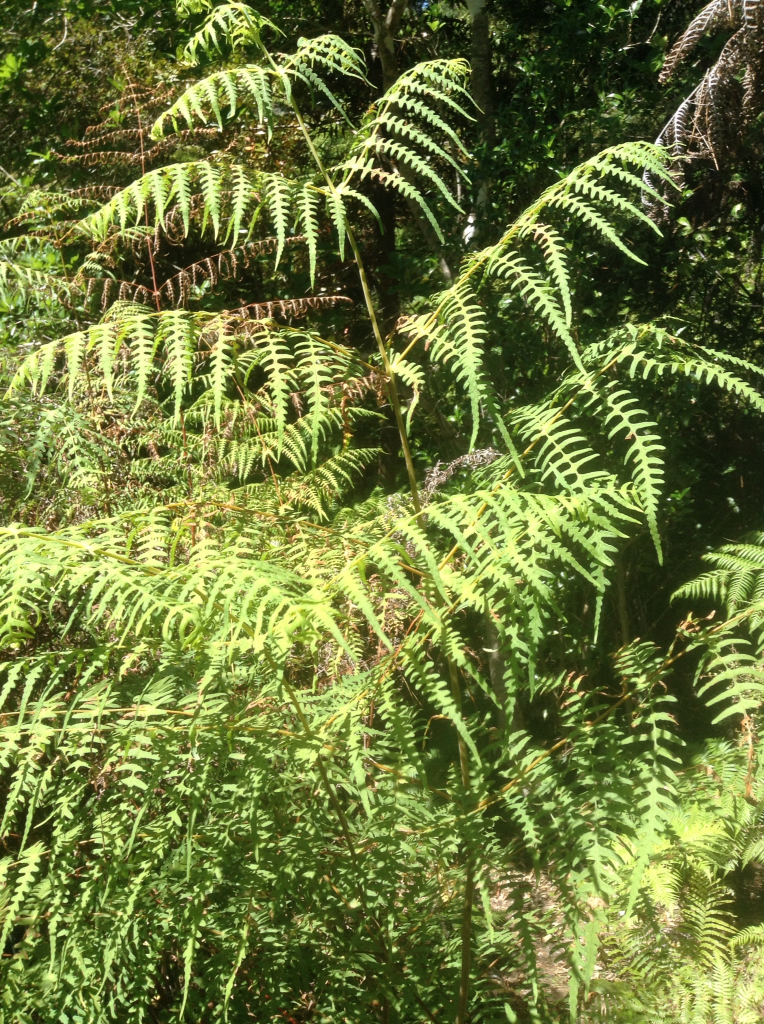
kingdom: Plantae
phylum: Tracheophyta
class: Polypodiopsida
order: Polypodiales
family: Dennstaedtiaceae
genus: Histiopteris
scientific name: Histiopteris incisa
